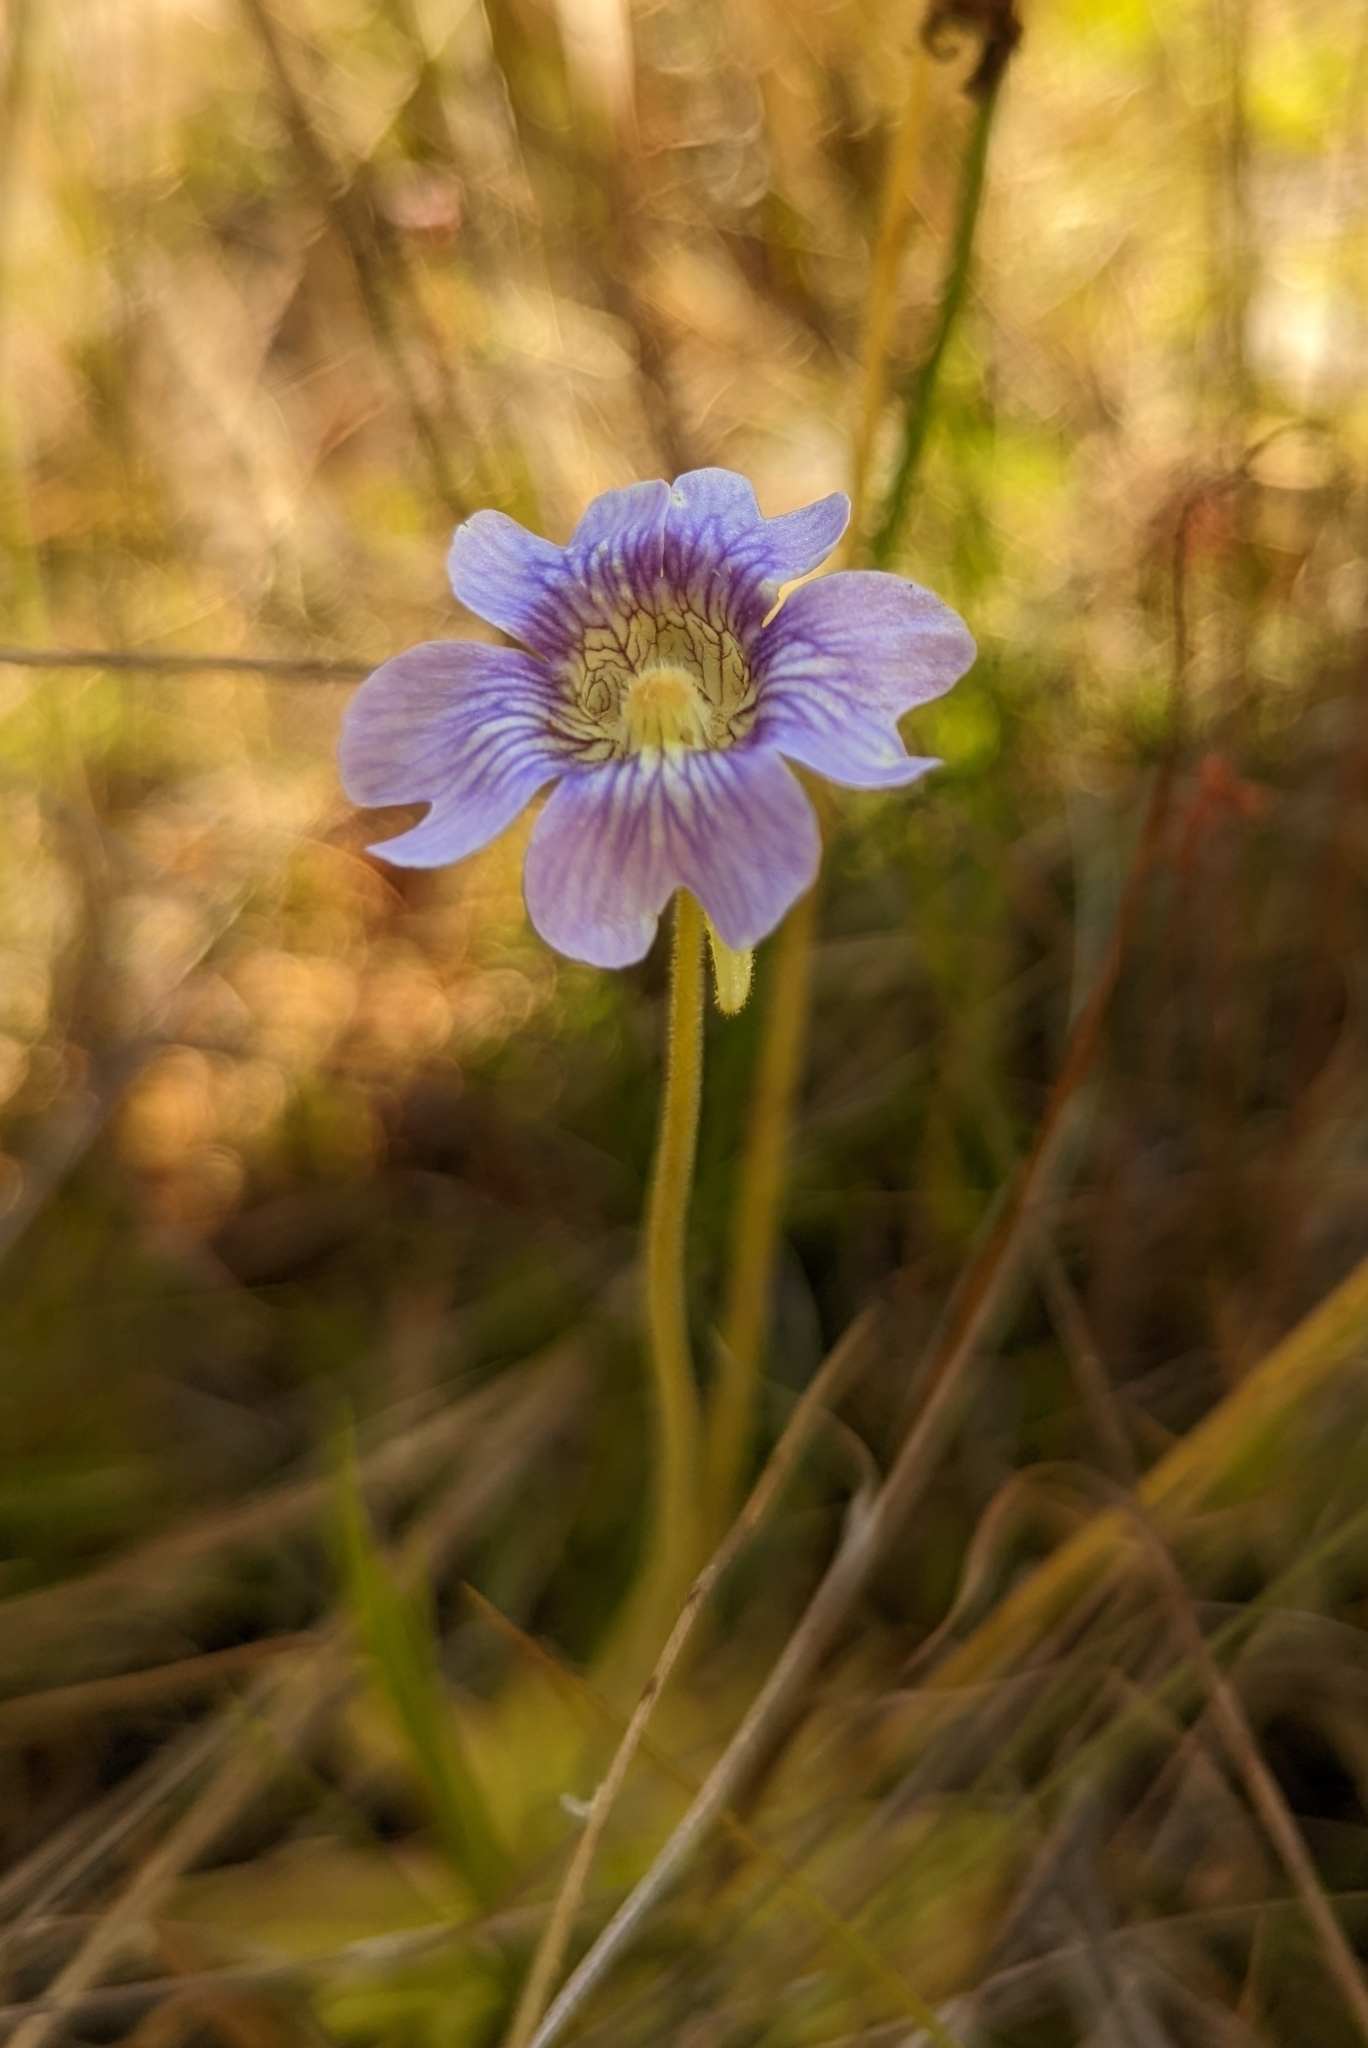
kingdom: Plantae
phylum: Tracheophyta
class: Magnoliopsida
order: Lamiales
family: Lentibulariaceae
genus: Pinguicula
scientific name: Pinguicula caerulea
